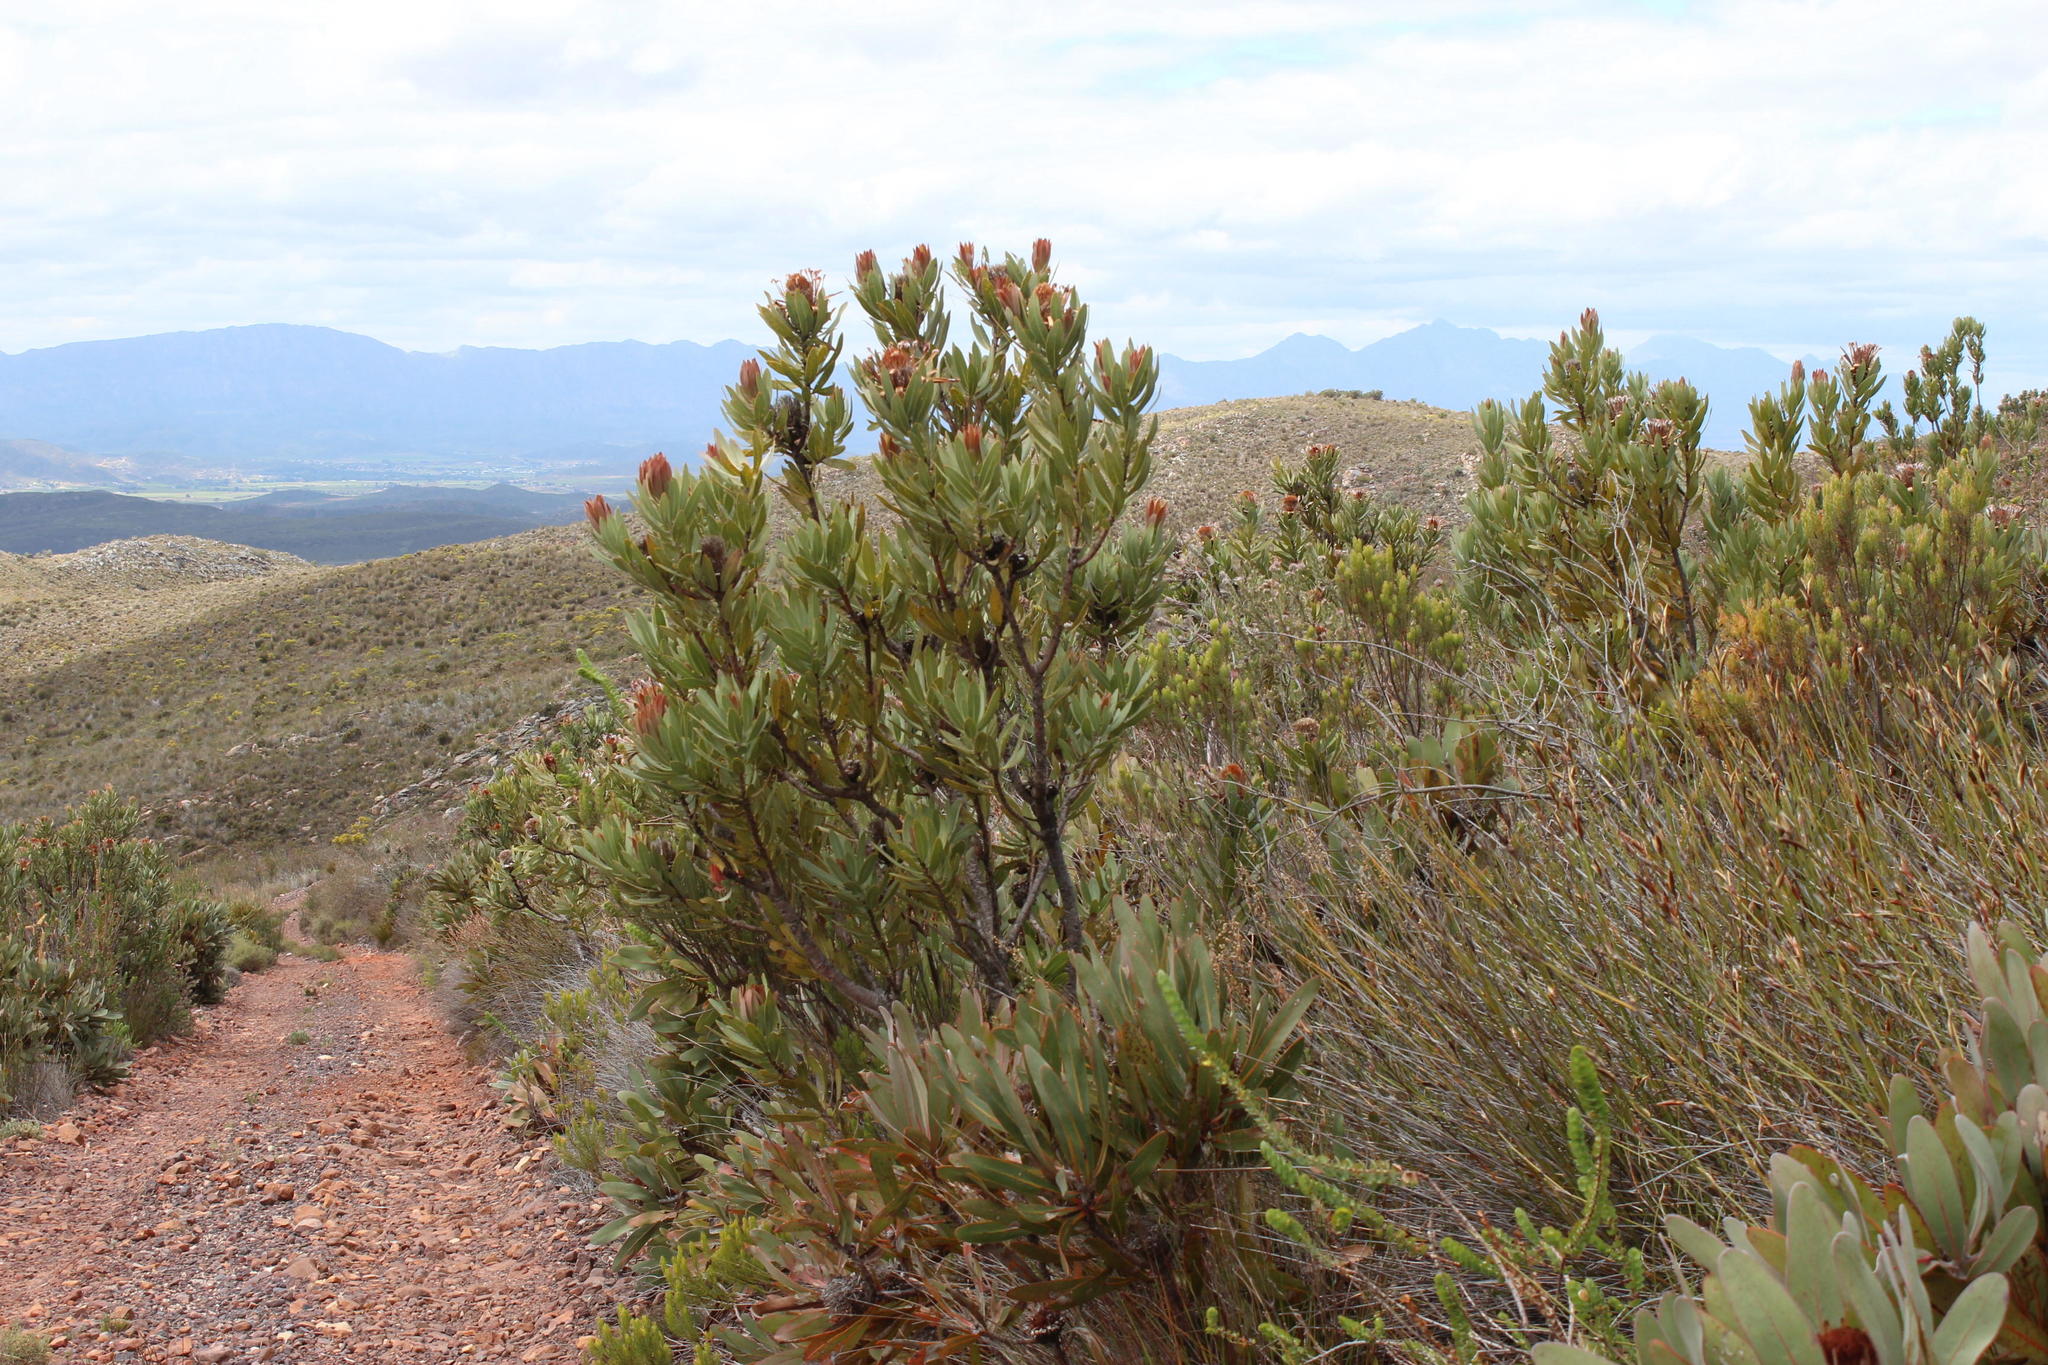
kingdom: Plantae
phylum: Tracheophyta
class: Magnoliopsida
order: Proteales
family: Proteaceae
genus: Protea
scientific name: Protea laurifolia
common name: Grey-leaf sugarbsh
